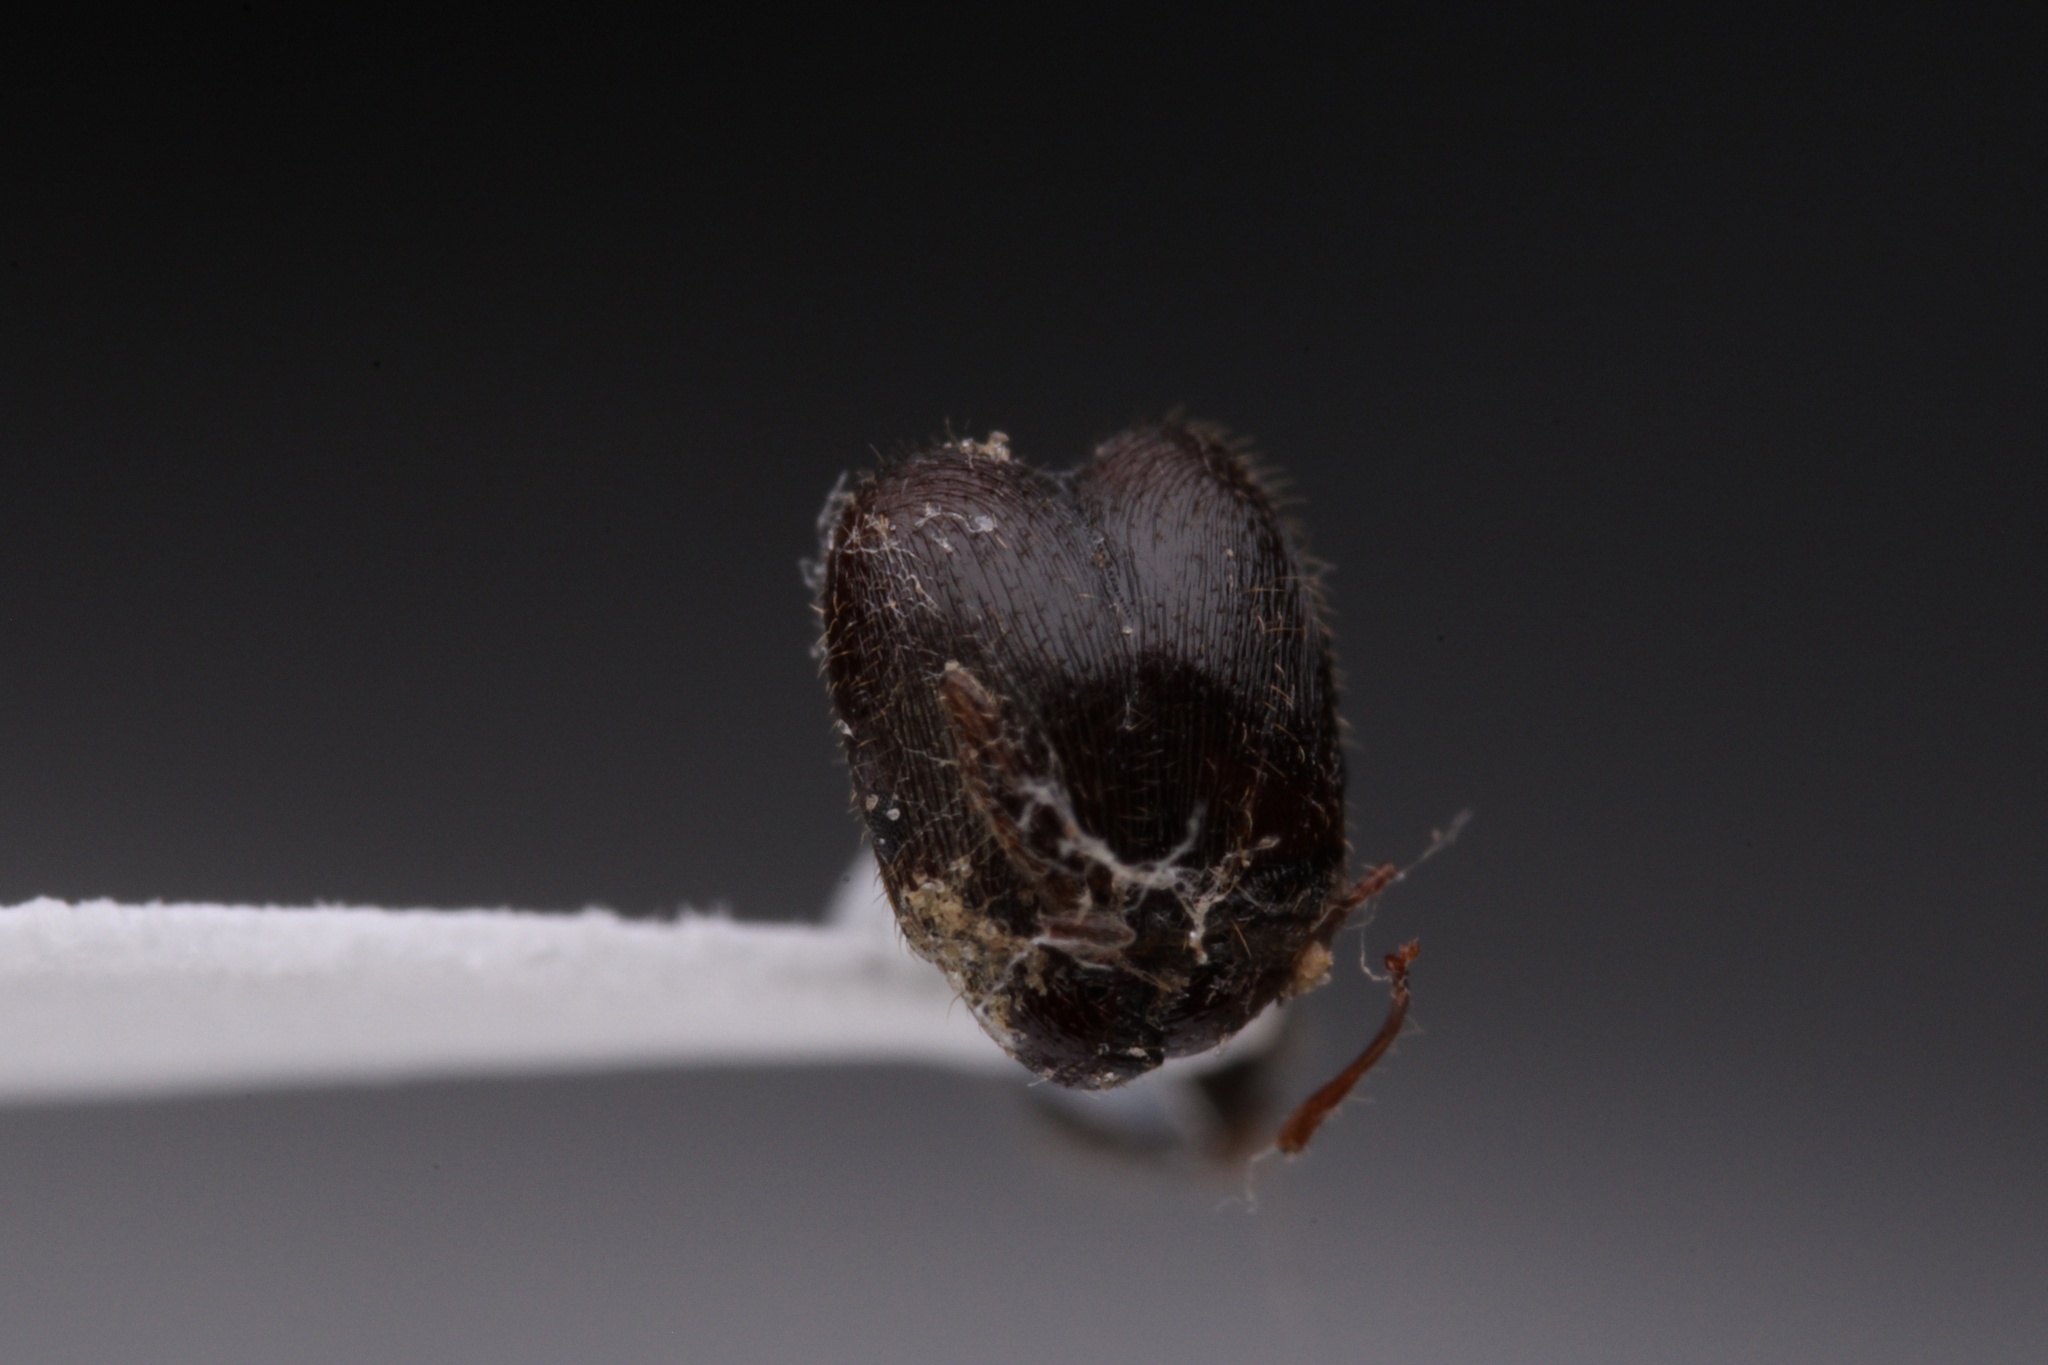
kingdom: Animalia
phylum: Arthropoda
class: Insecta
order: Hymenoptera
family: Formicidae
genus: Pheidole
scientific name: Pheidole pilifera
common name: Hairy big-headed ant
